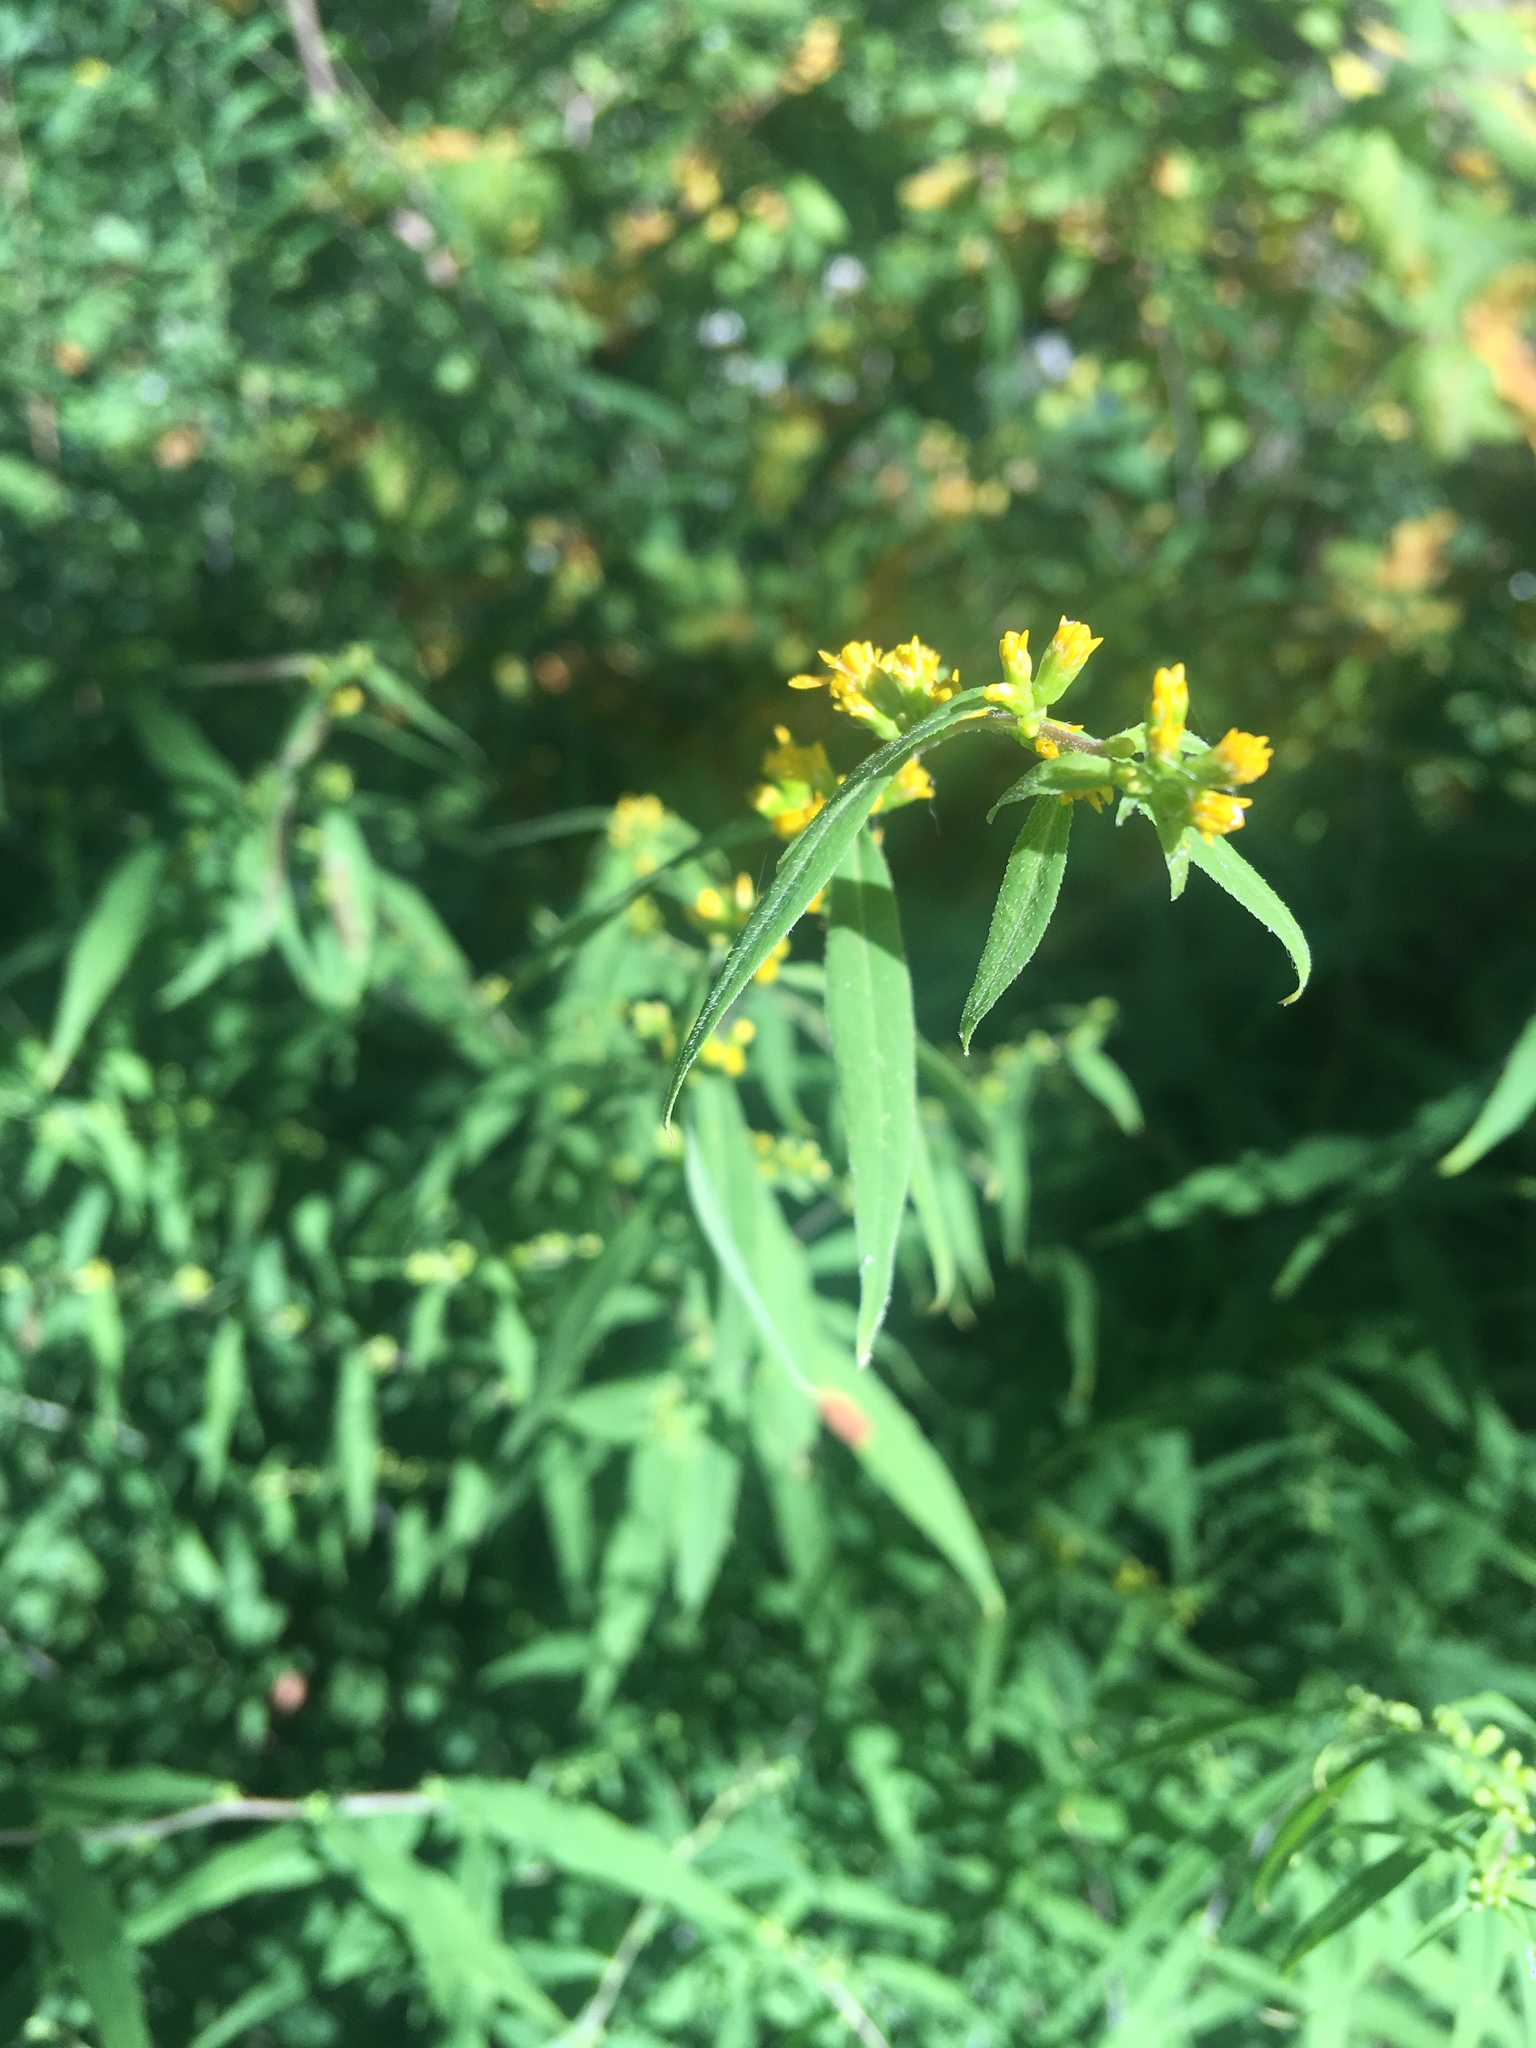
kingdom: Plantae
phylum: Tracheophyta
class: Magnoliopsida
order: Asterales
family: Asteraceae
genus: Solidago
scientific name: Solidago caesia
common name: Woodland goldenrod
